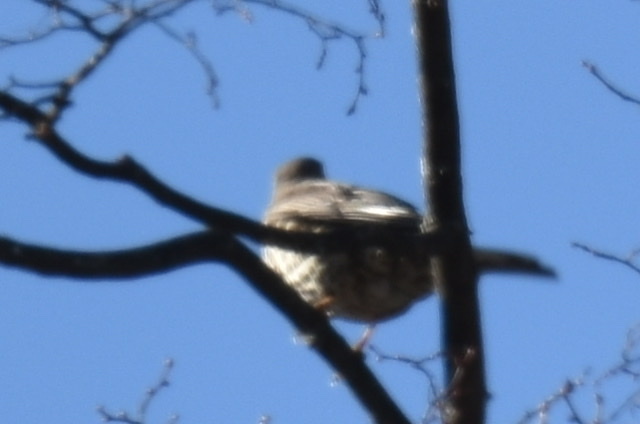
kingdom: Animalia
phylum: Chordata
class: Aves
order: Passeriformes
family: Turdidae
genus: Turdus
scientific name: Turdus viscivorus
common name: Mistle thrush
